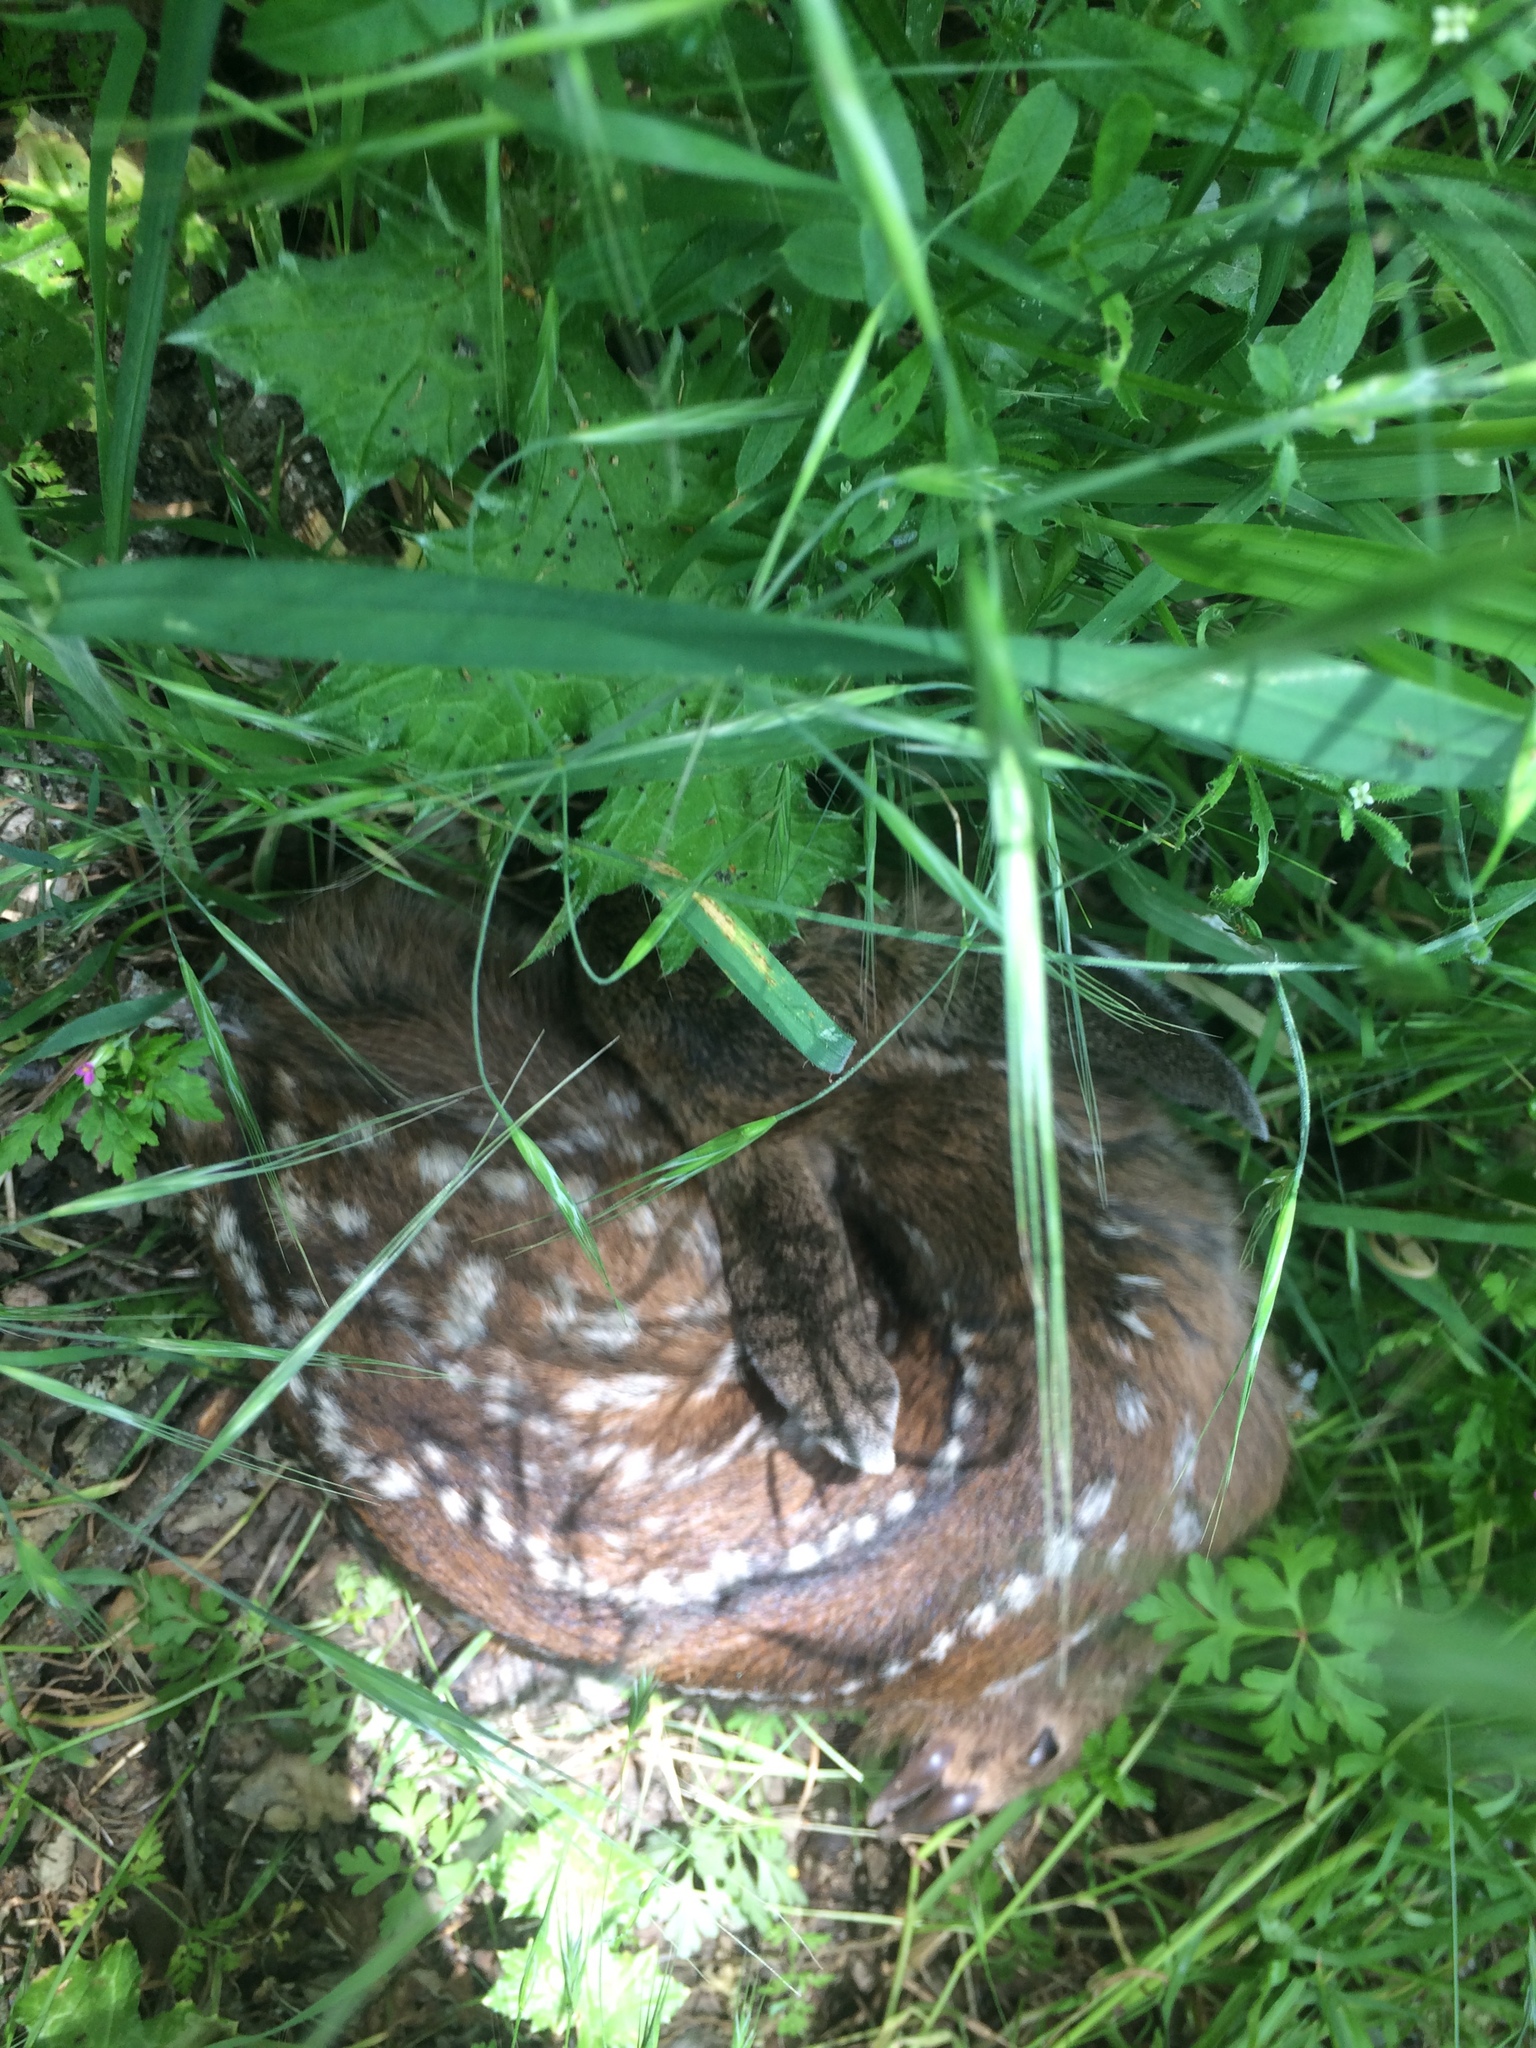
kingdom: Animalia
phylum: Chordata
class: Mammalia
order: Artiodactyla
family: Cervidae
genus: Odocoileus
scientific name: Odocoileus hemionus
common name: Mule deer
